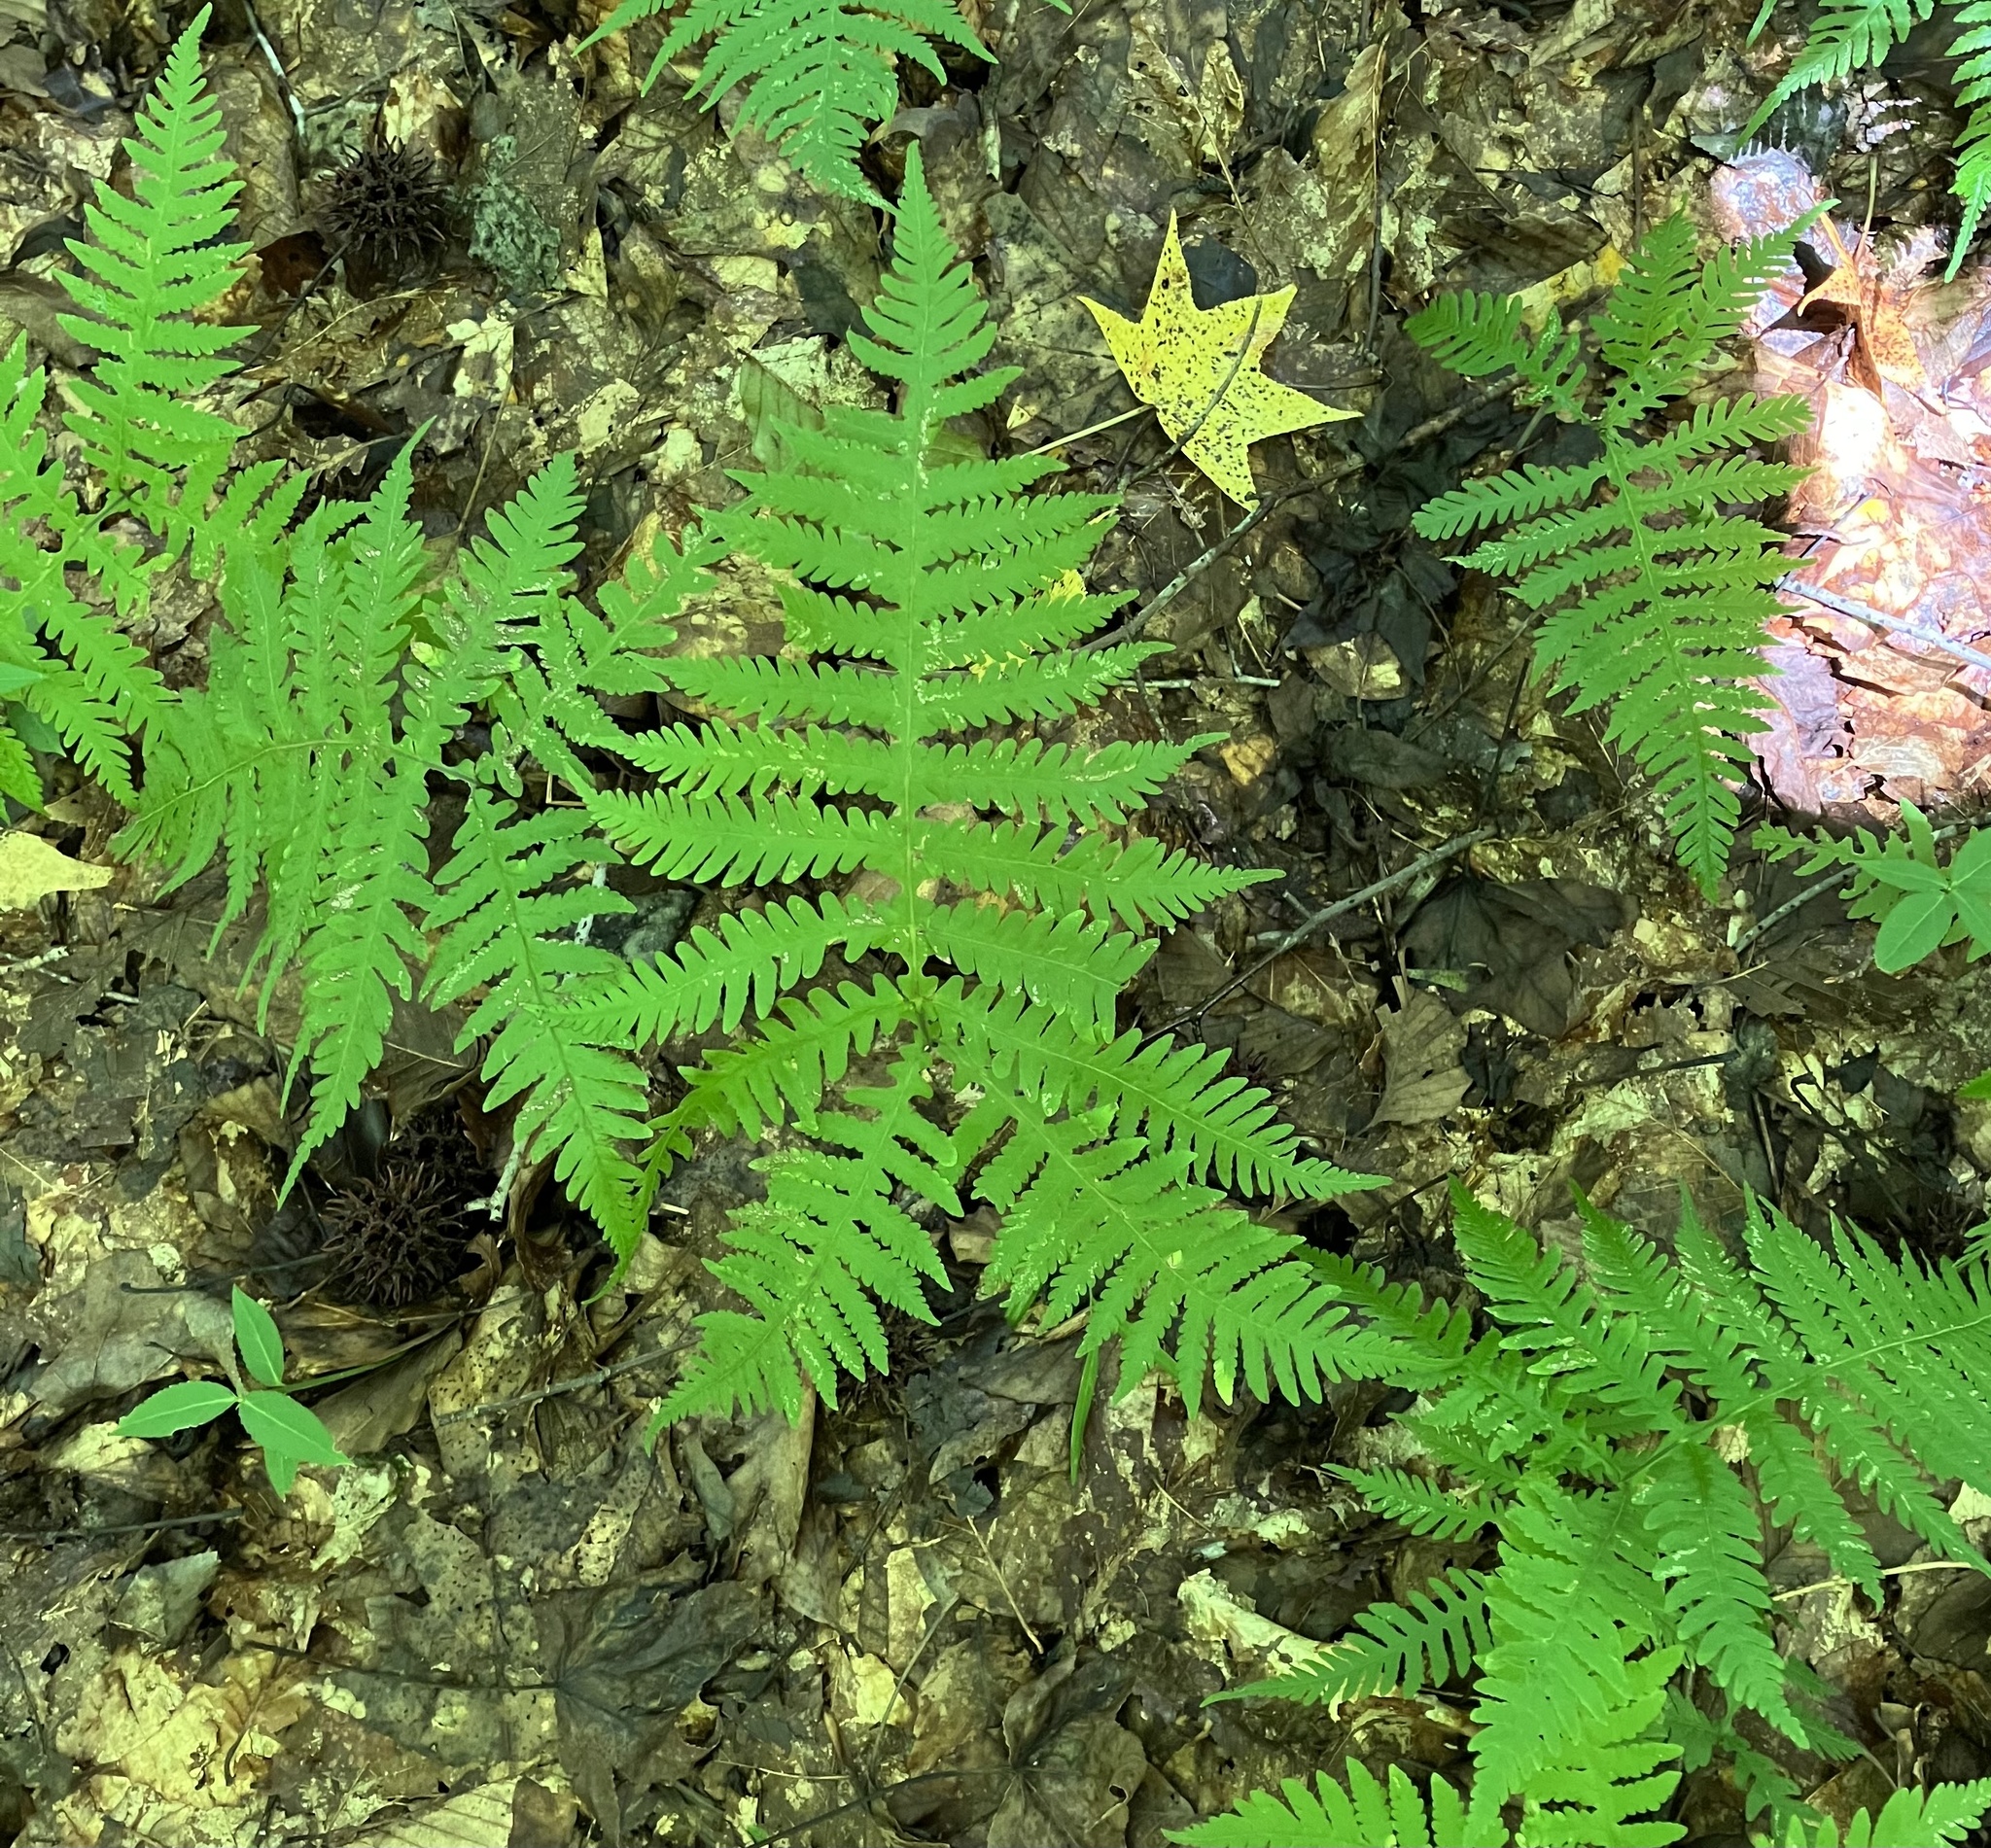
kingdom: Plantae
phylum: Tracheophyta
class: Polypodiopsida
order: Polypodiales
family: Thelypteridaceae
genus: Phegopteris
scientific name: Phegopteris hexagonoptera
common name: Broad beech fern
